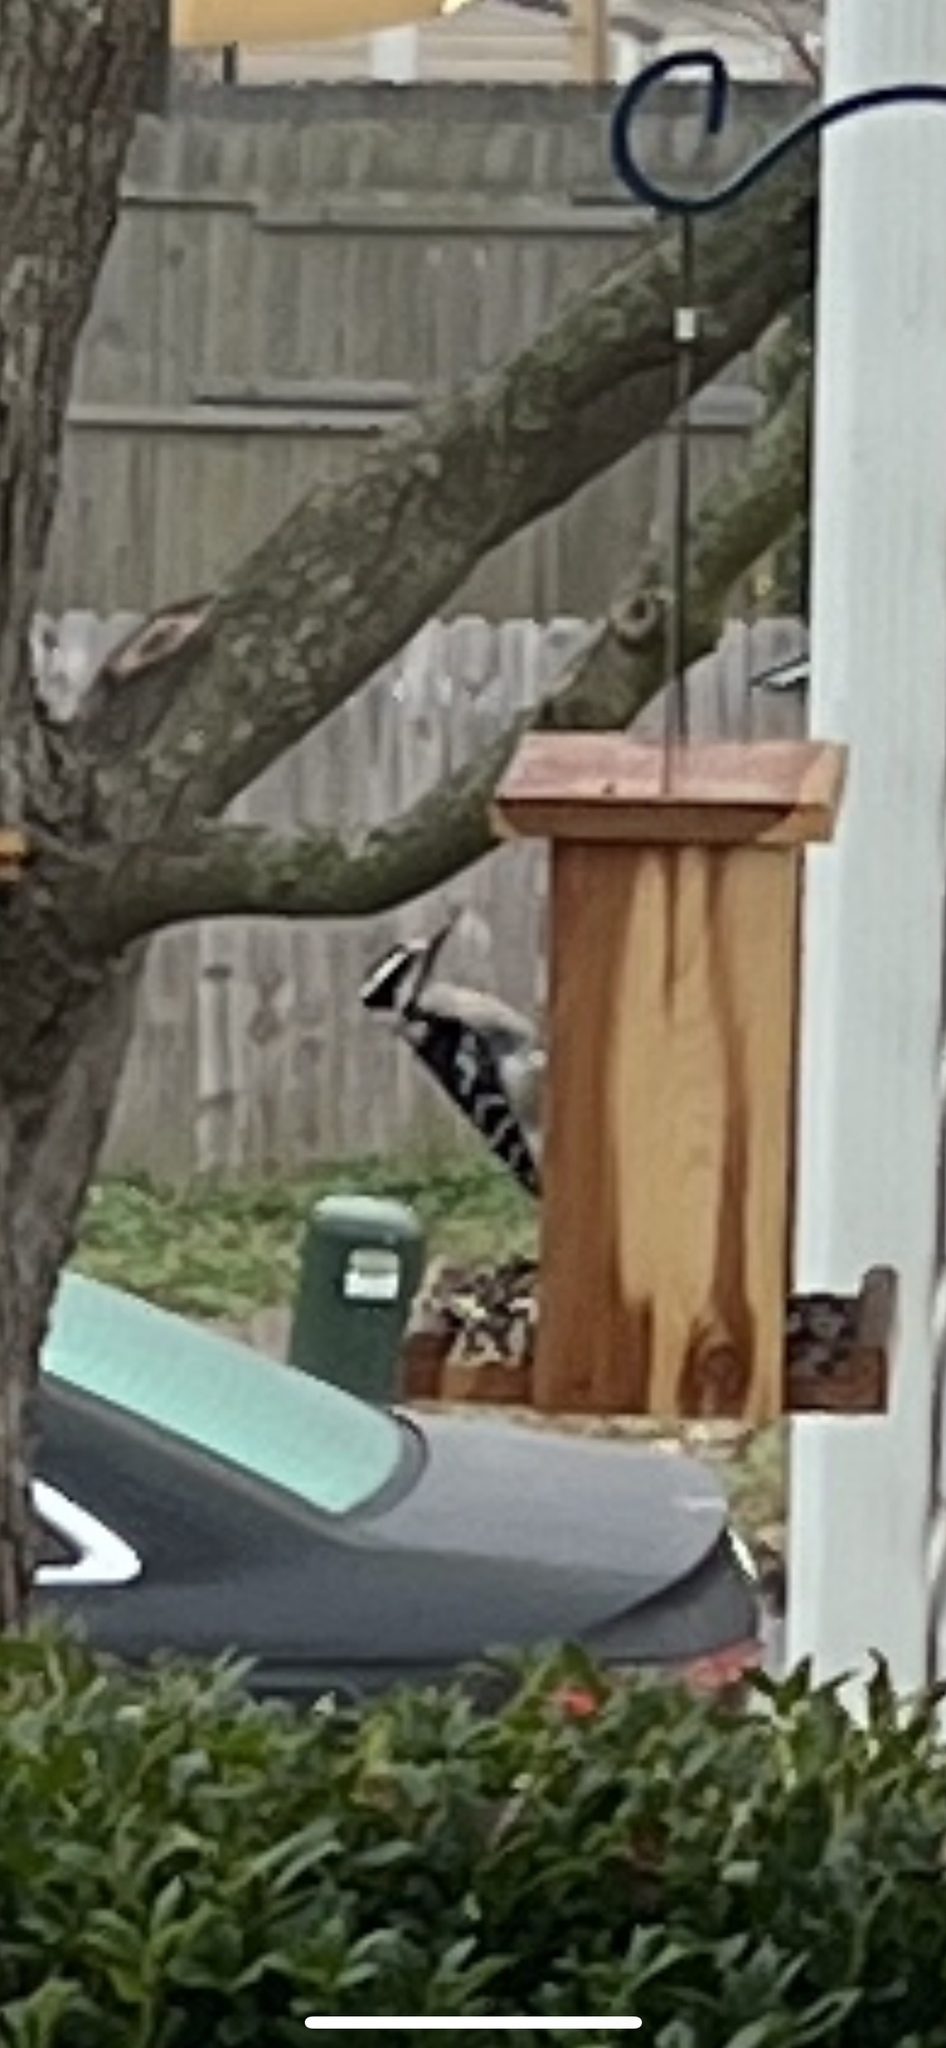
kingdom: Animalia
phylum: Chordata
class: Aves
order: Piciformes
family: Picidae
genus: Leuconotopicus
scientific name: Leuconotopicus villosus
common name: Hairy woodpecker
